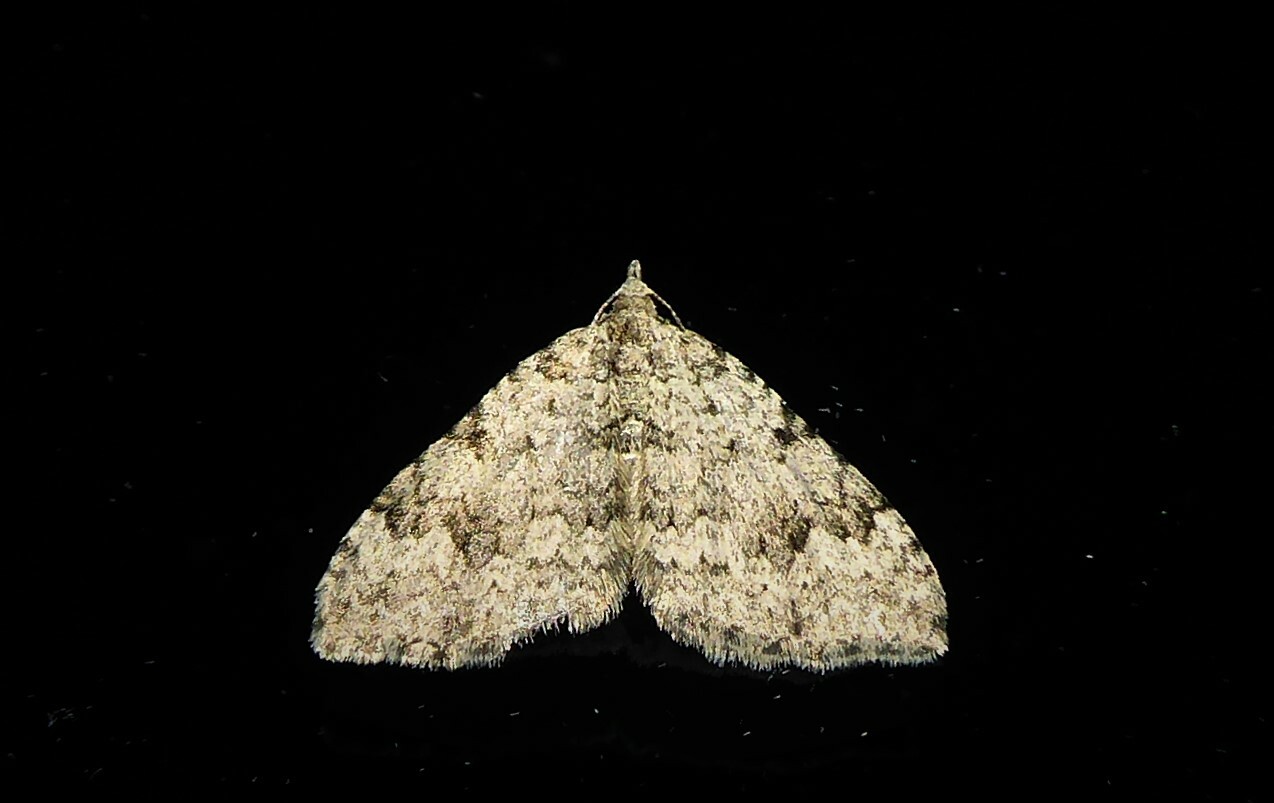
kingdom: Animalia
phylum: Arthropoda
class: Insecta
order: Lepidoptera
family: Geometridae
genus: Helastia
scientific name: Helastia cinerearia
